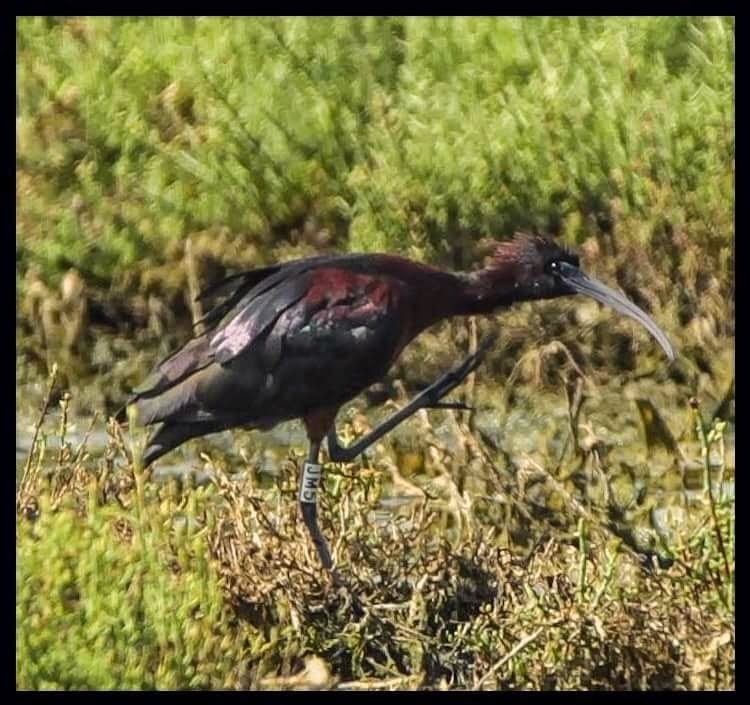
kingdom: Animalia
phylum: Chordata
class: Aves
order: Pelecaniformes
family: Threskiornithidae
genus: Plegadis
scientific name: Plegadis falcinellus
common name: Glossy ibis
